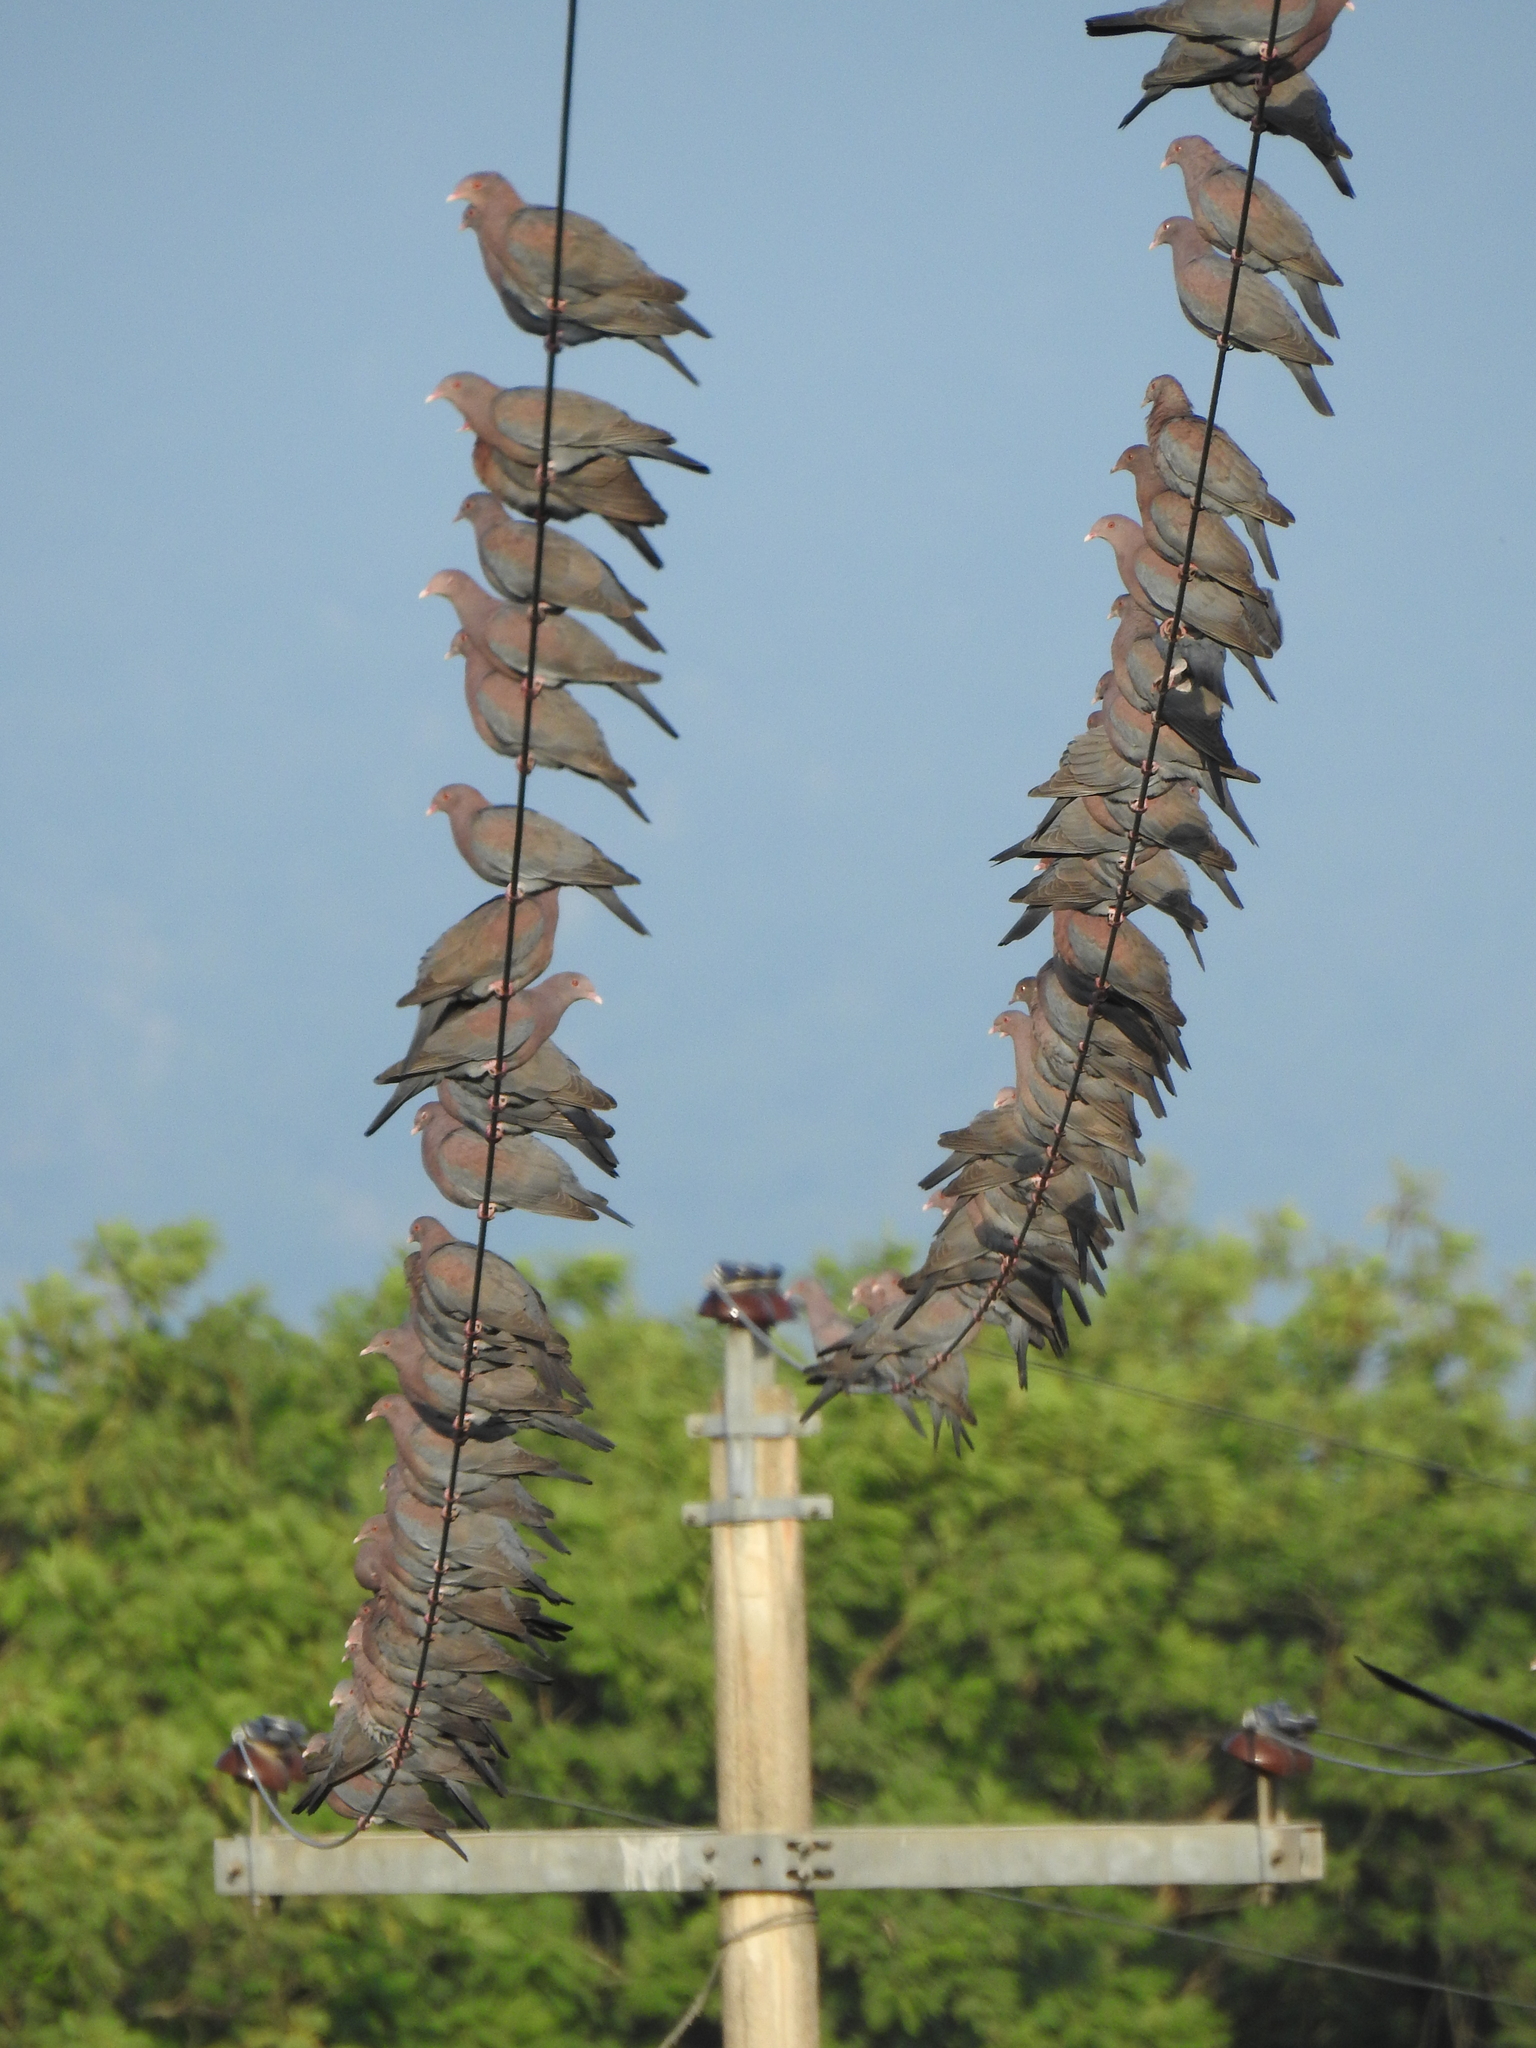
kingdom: Animalia
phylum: Chordata
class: Aves
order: Columbiformes
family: Columbidae
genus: Patagioenas
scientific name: Patagioenas flavirostris
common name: Red-billed pigeon
